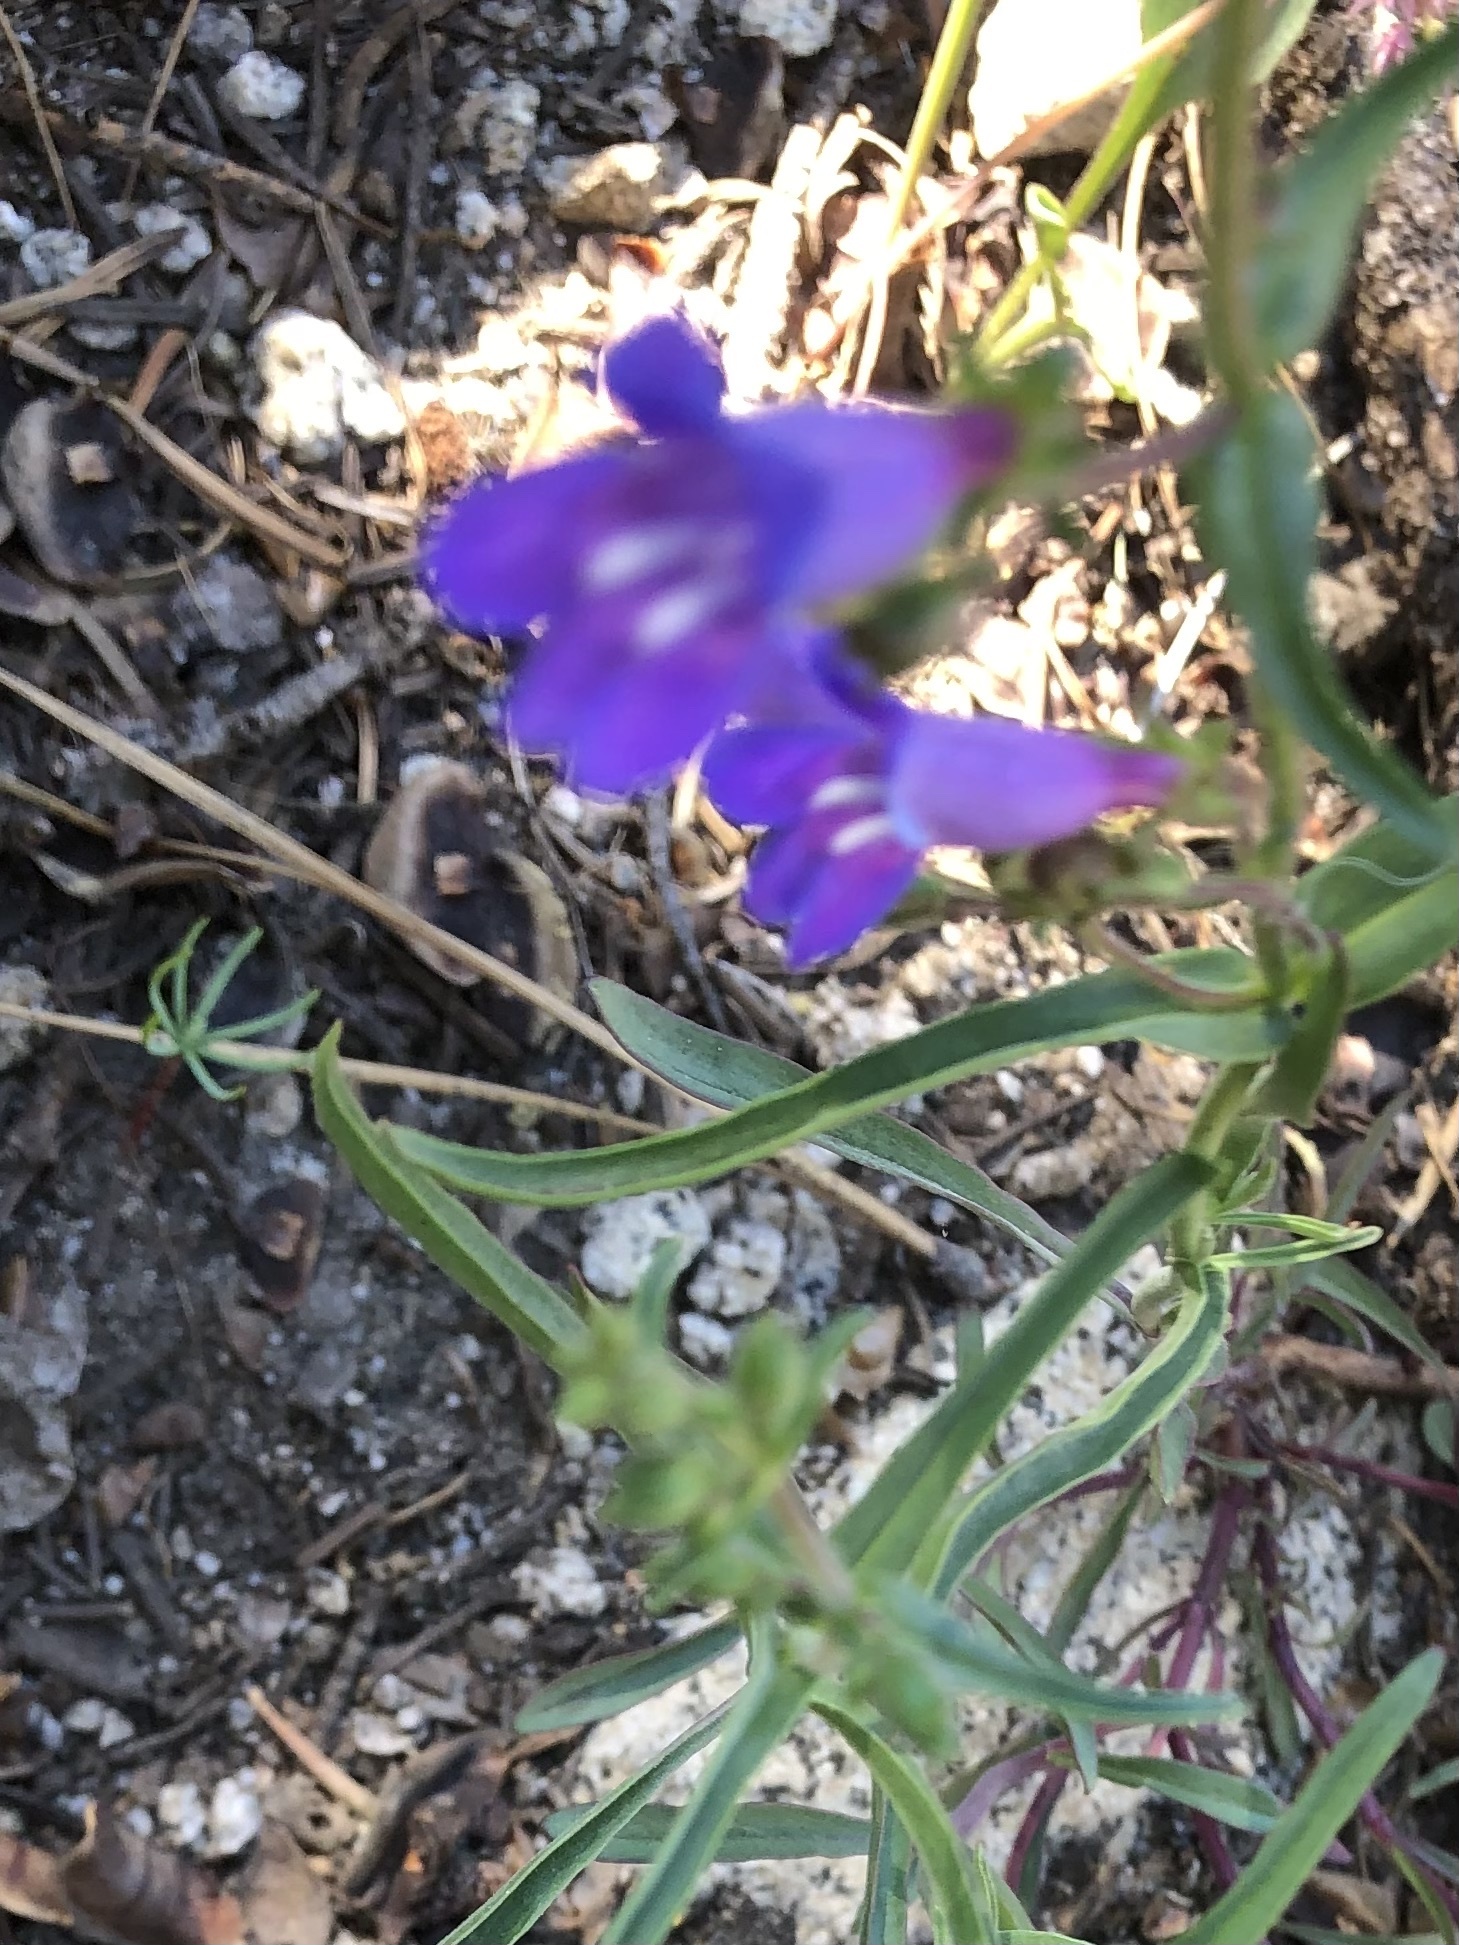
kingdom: Plantae
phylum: Tracheophyta
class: Magnoliopsida
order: Lamiales
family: Plantaginaceae
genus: Penstemon
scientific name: Penstemon laetus
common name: Gay penstemon
